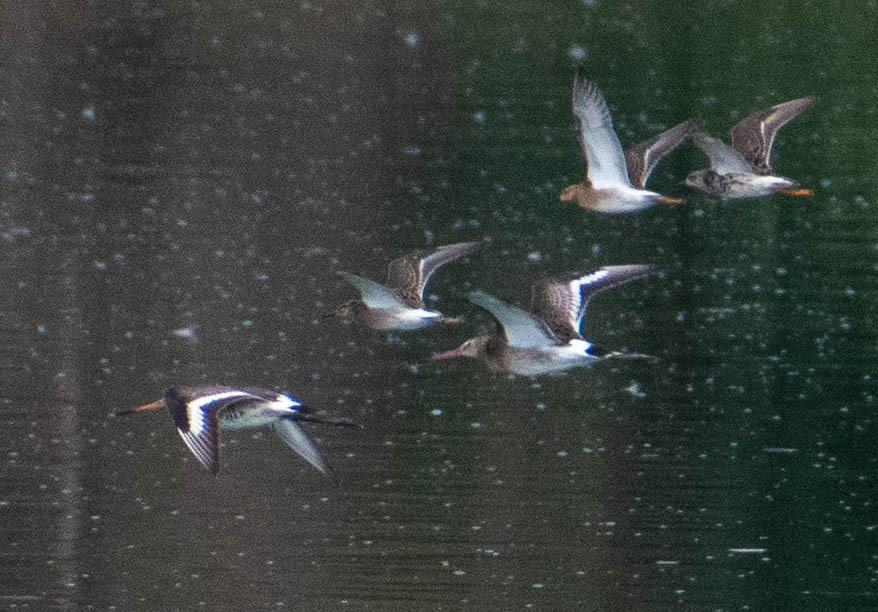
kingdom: Animalia
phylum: Chordata
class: Aves
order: Charadriiformes
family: Scolopacidae
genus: Calidris
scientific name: Calidris pugnax
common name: Ruff
